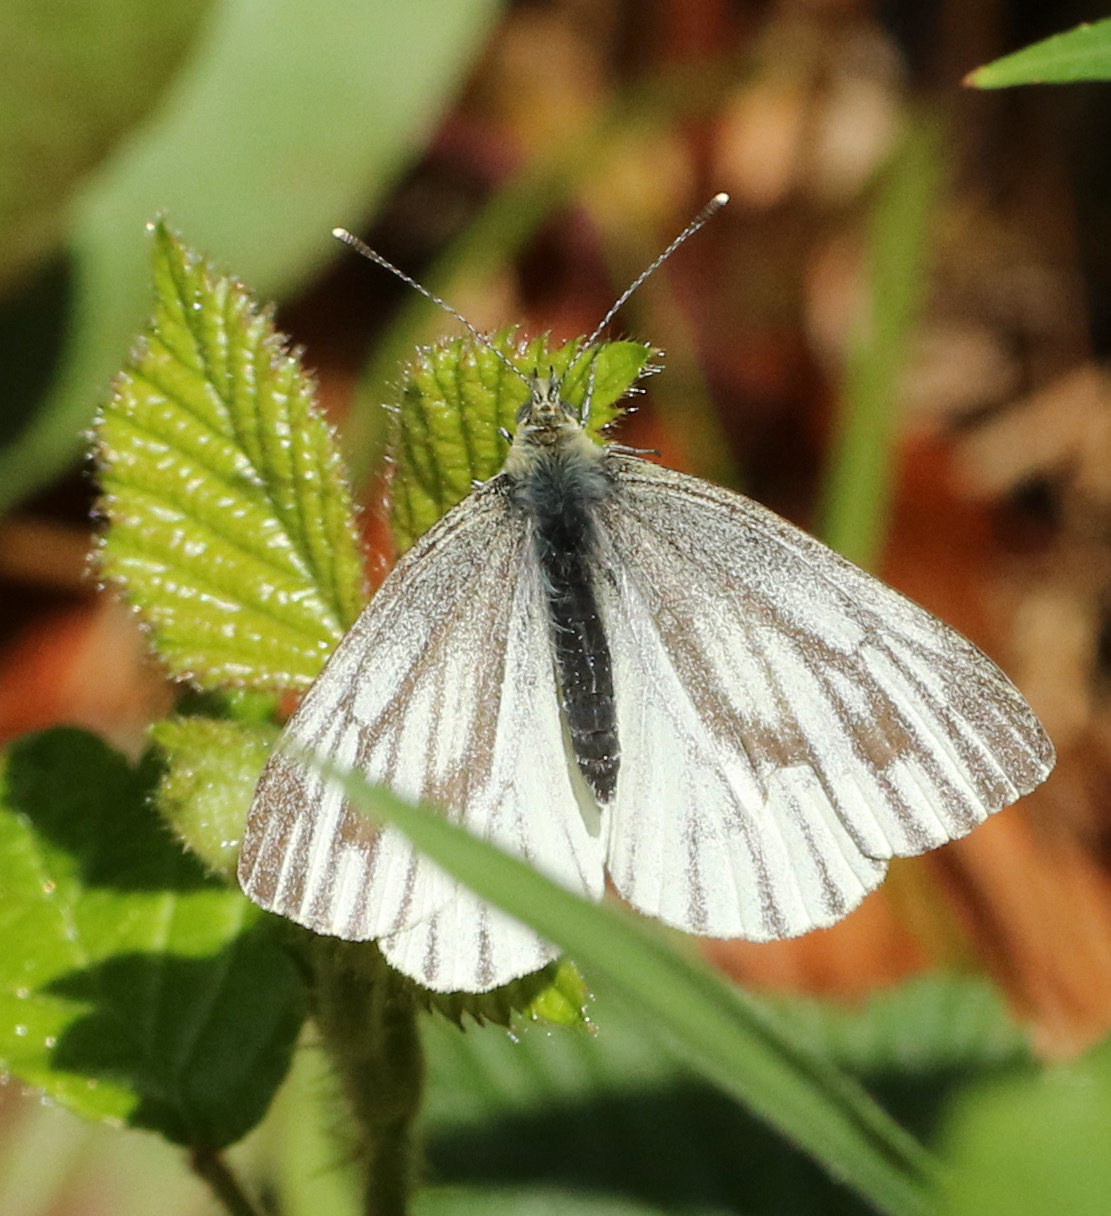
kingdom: Animalia
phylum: Arthropoda
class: Insecta
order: Lepidoptera
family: Pieridae
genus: Pieris
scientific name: Pieris napi
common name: Green-veined white
